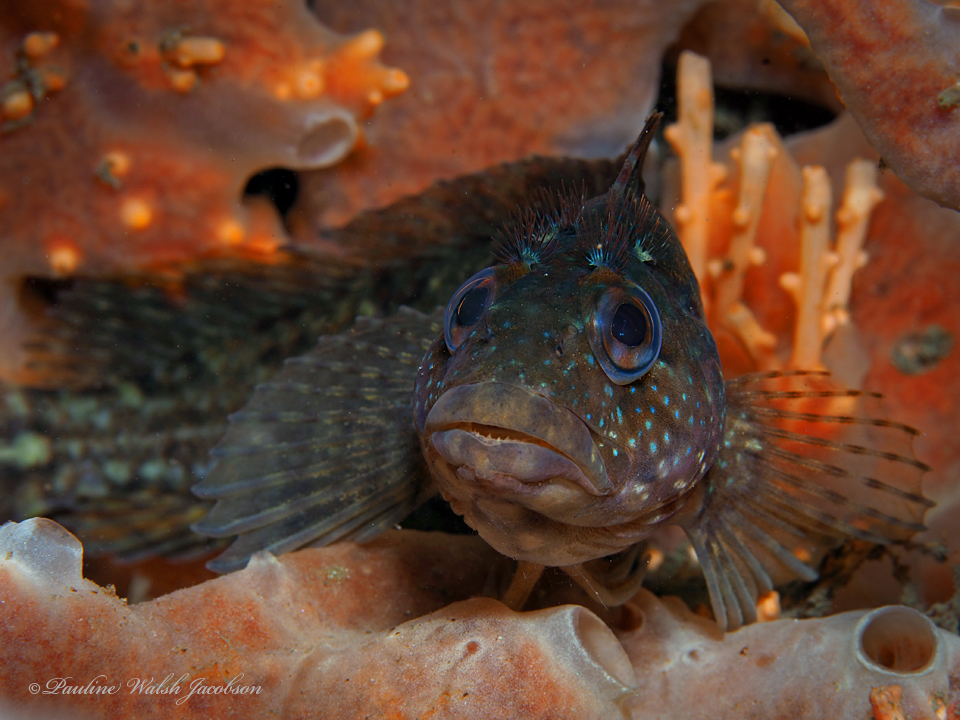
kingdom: Animalia
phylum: Chordata
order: Perciformes
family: Labrisomidae
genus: Labrisomus
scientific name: Labrisomus conditus
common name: Masquerader hairy blenny
